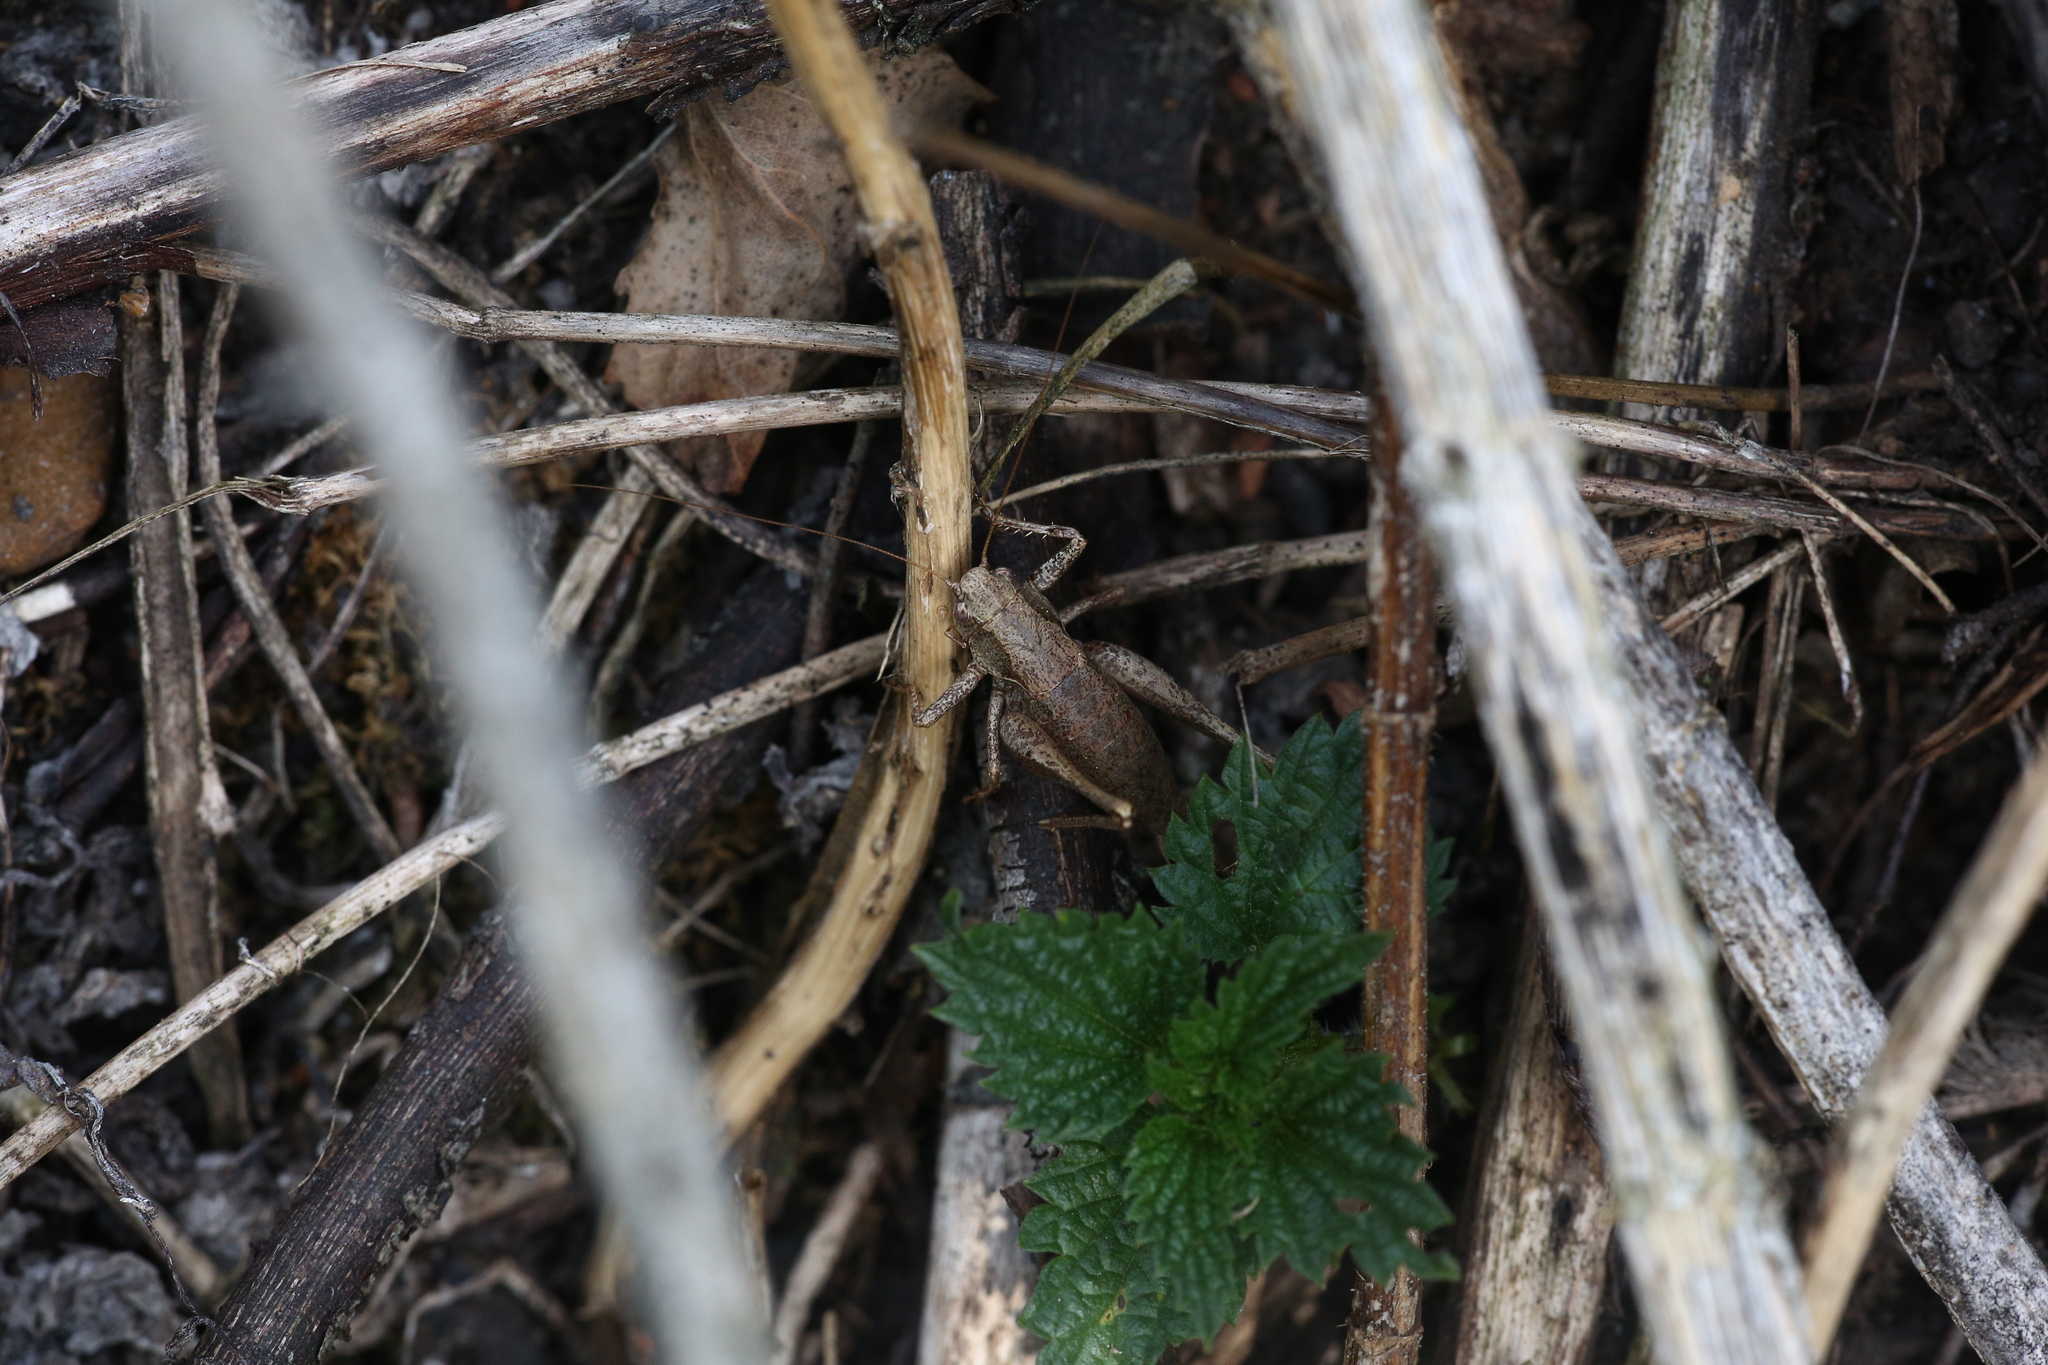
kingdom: Animalia
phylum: Arthropoda
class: Insecta
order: Orthoptera
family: Tettigoniidae
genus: Pholidoptera
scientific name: Pholidoptera griseoaptera
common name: Dark bush-cricket
